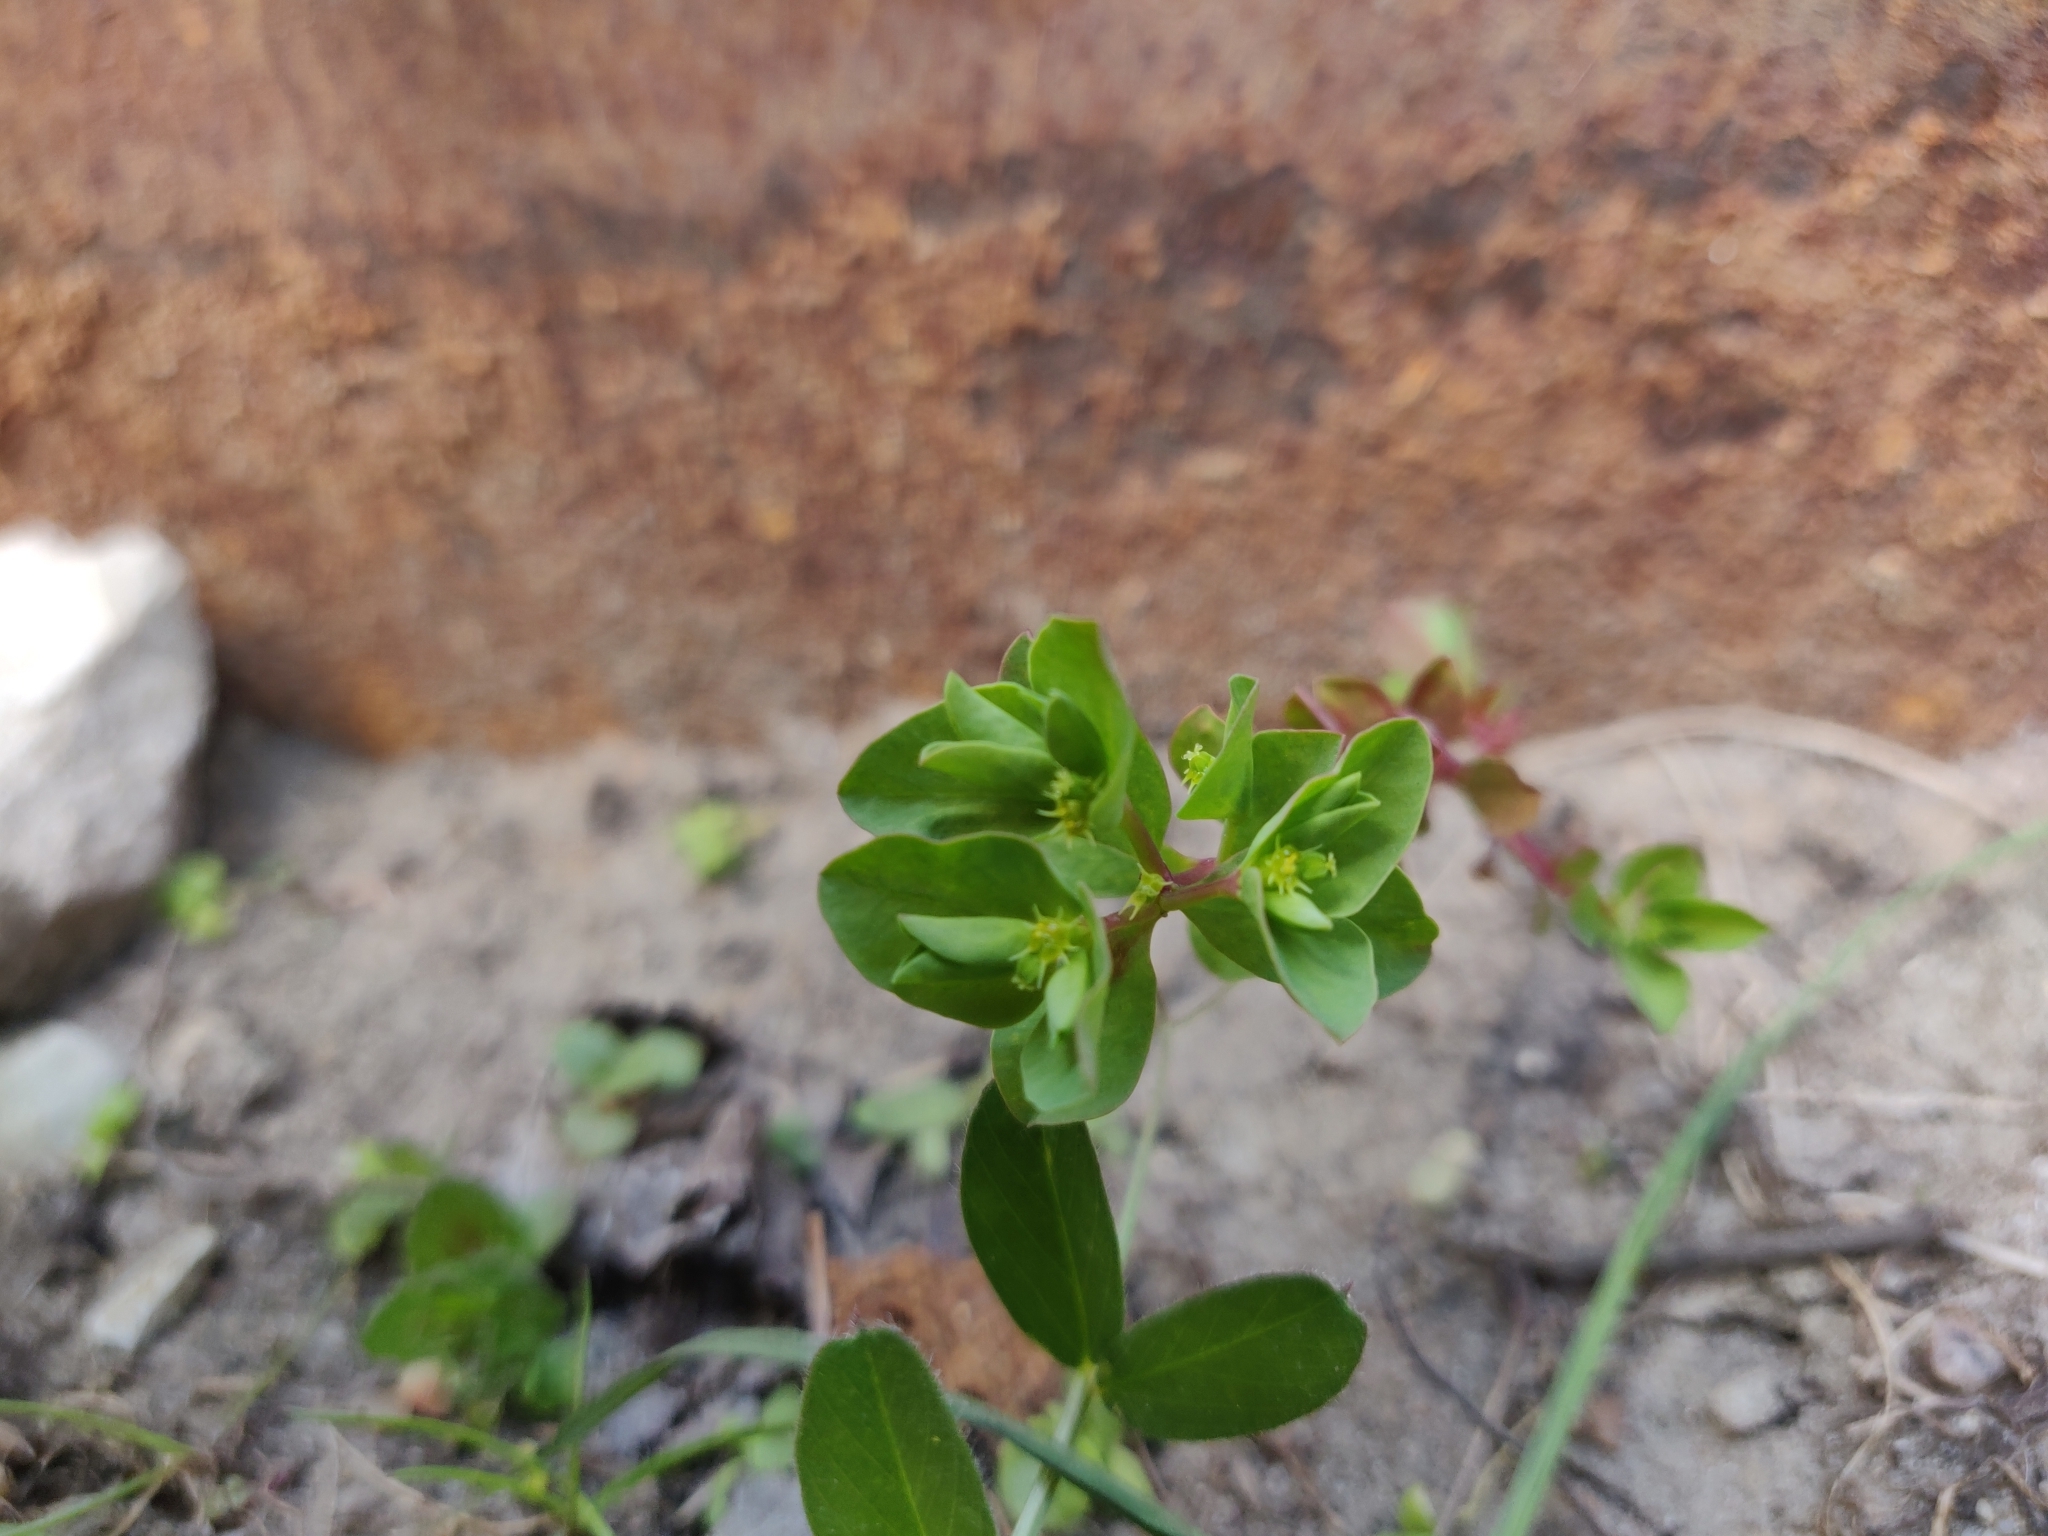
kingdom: Plantae
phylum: Tracheophyta
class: Magnoliopsida
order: Malpighiales
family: Euphorbiaceae
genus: Euphorbia
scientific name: Euphorbia peplus
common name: Petty spurge
